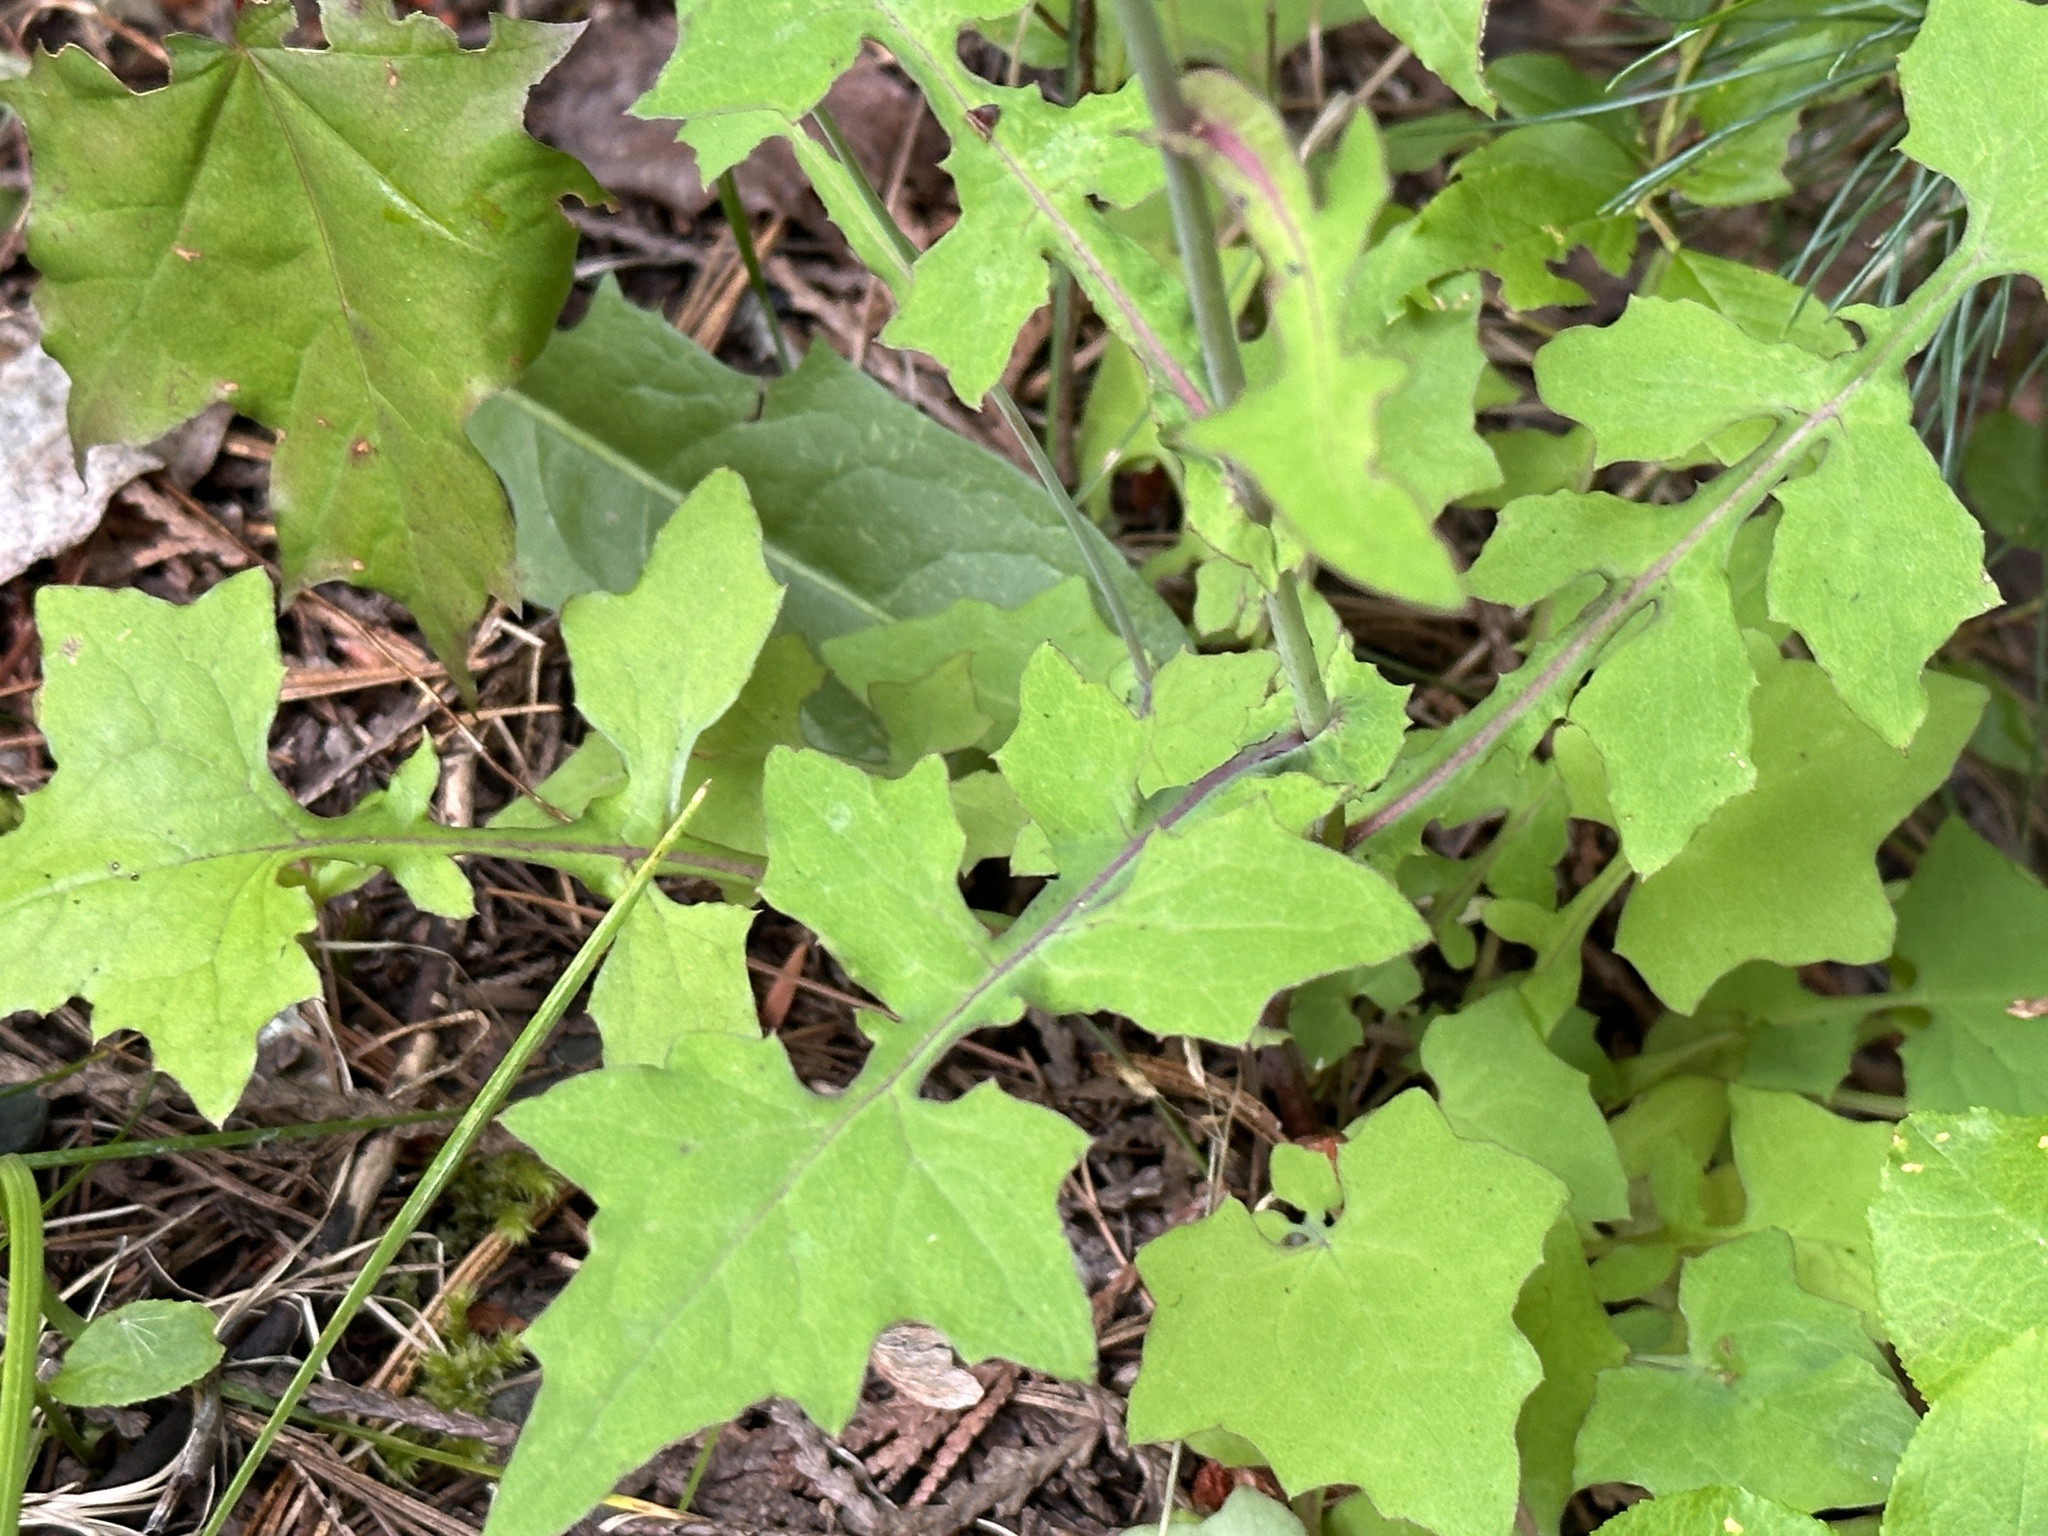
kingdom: Plantae
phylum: Tracheophyta
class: Magnoliopsida
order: Asterales
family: Asteraceae
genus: Mycelis
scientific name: Mycelis muralis
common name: Wall lettuce
